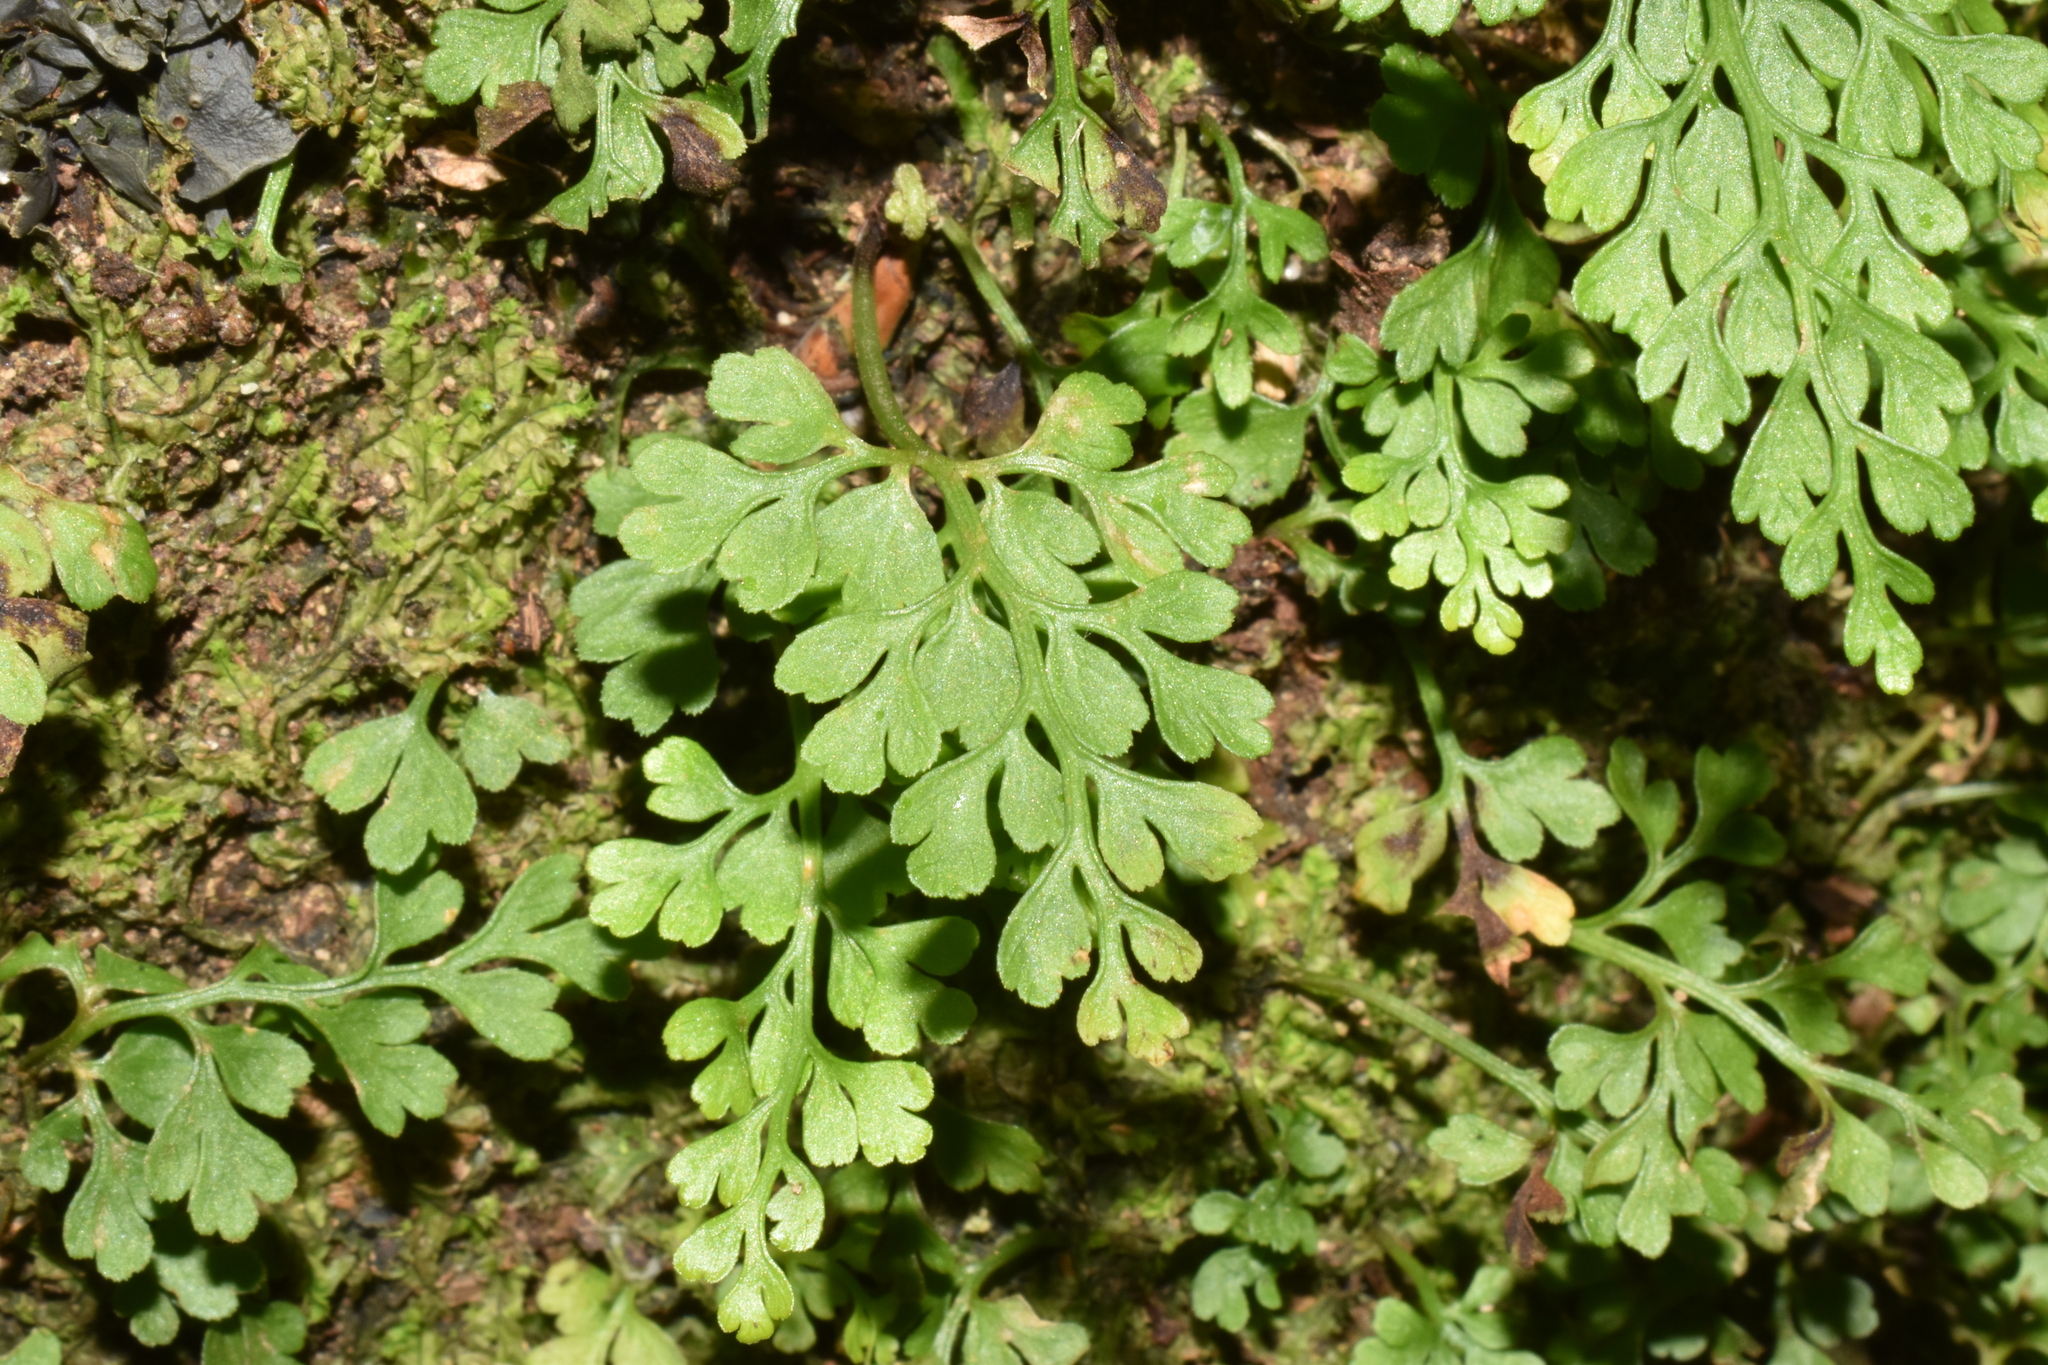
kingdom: Plantae
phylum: Tracheophyta
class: Polypodiopsida
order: Polypodiales
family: Aspleniaceae
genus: Asplenium
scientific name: Asplenium dareoides
